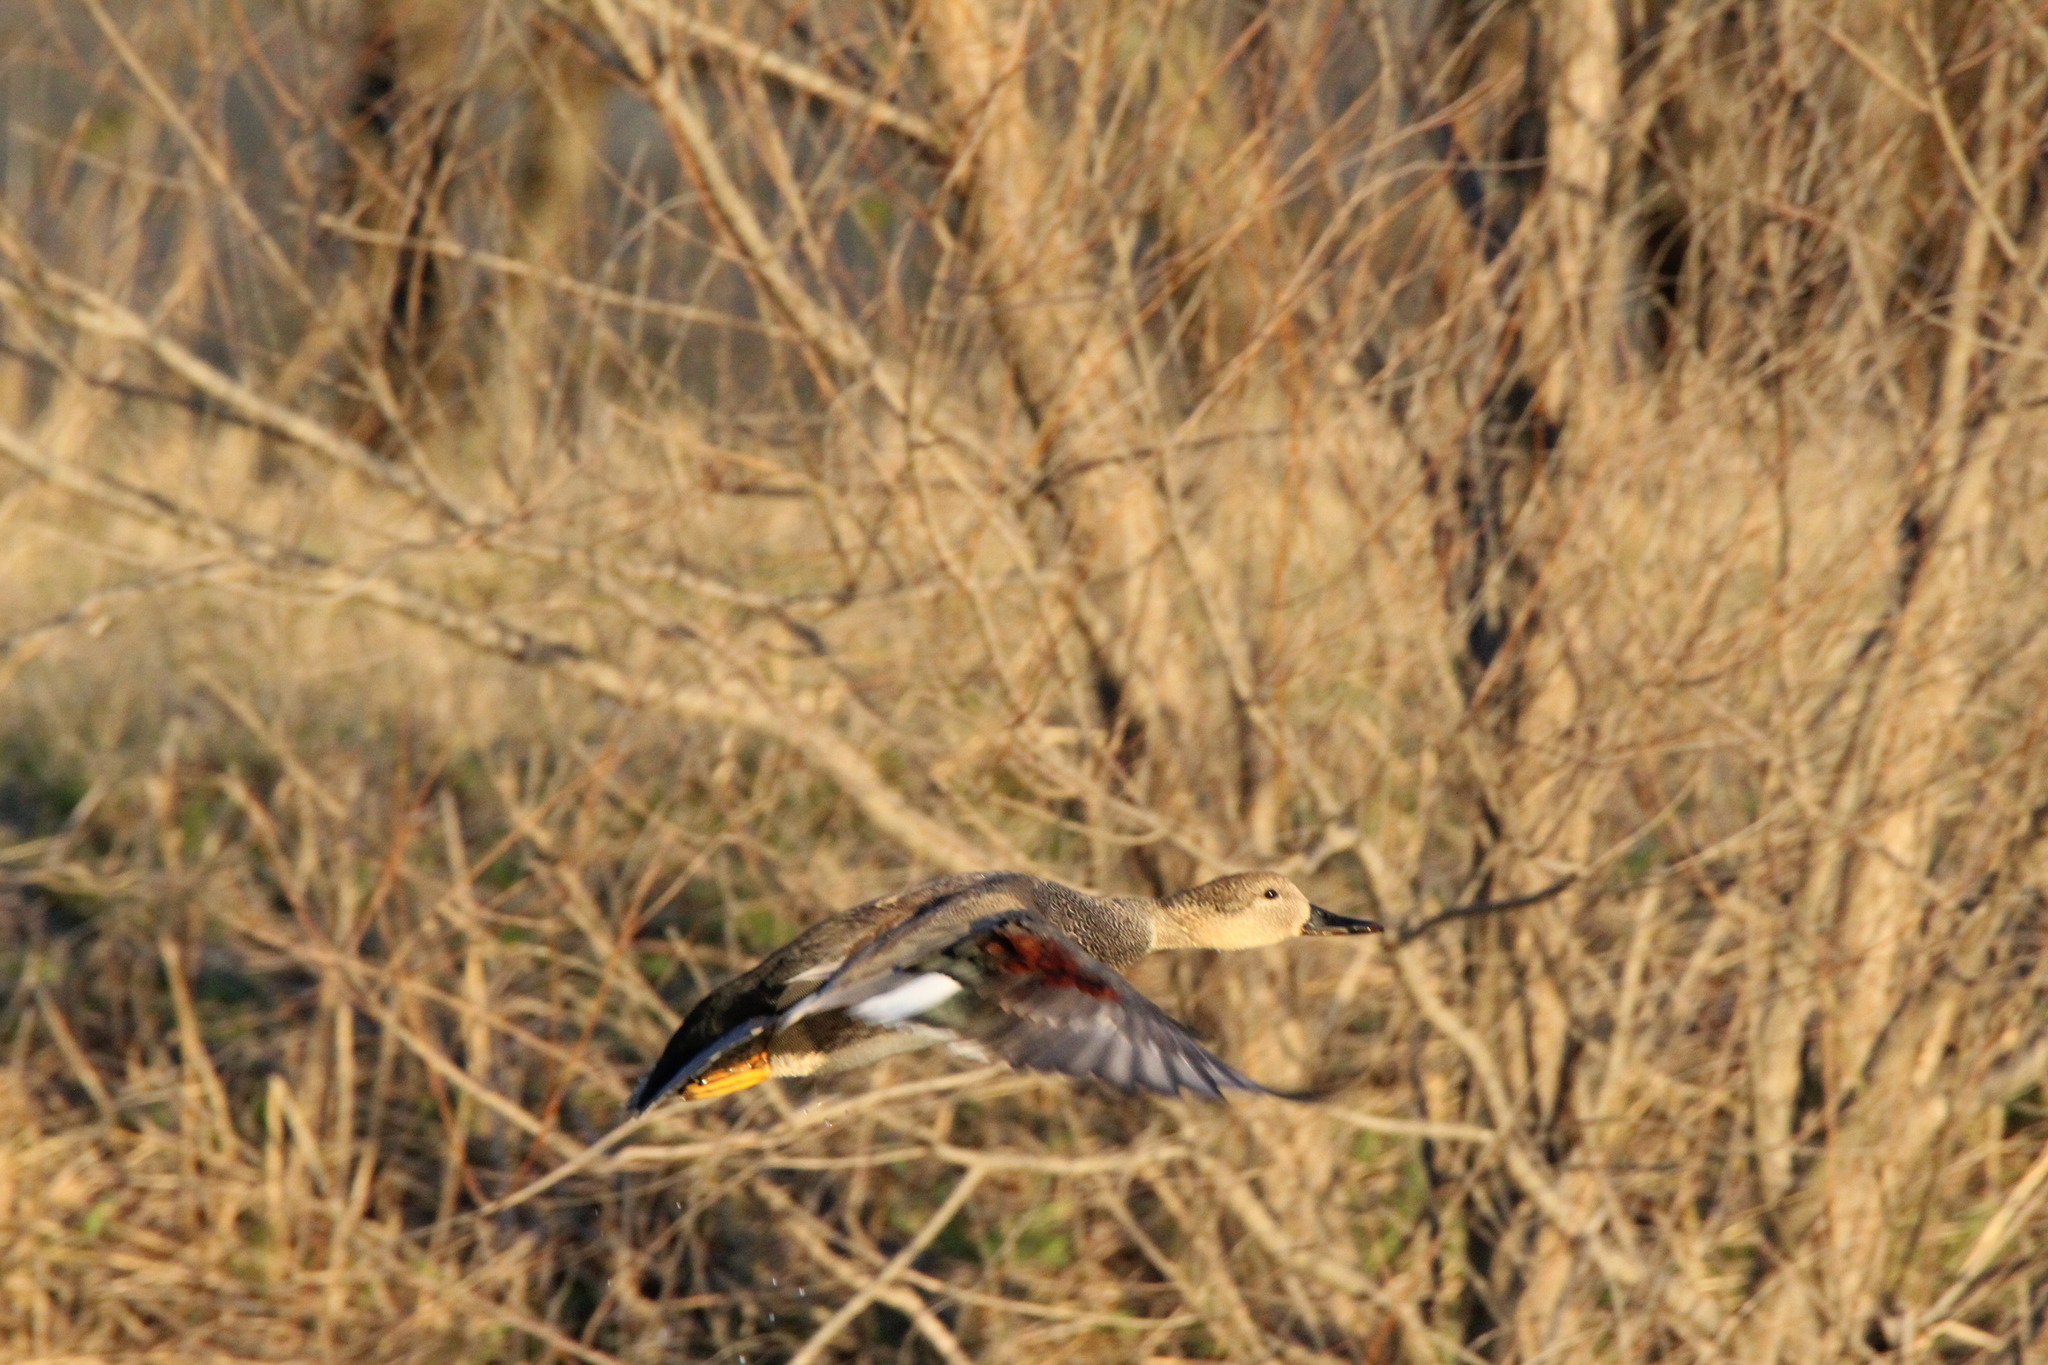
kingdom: Animalia
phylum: Chordata
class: Aves
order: Anseriformes
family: Anatidae
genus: Mareca
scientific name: Mareca strepera
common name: Gadwall
